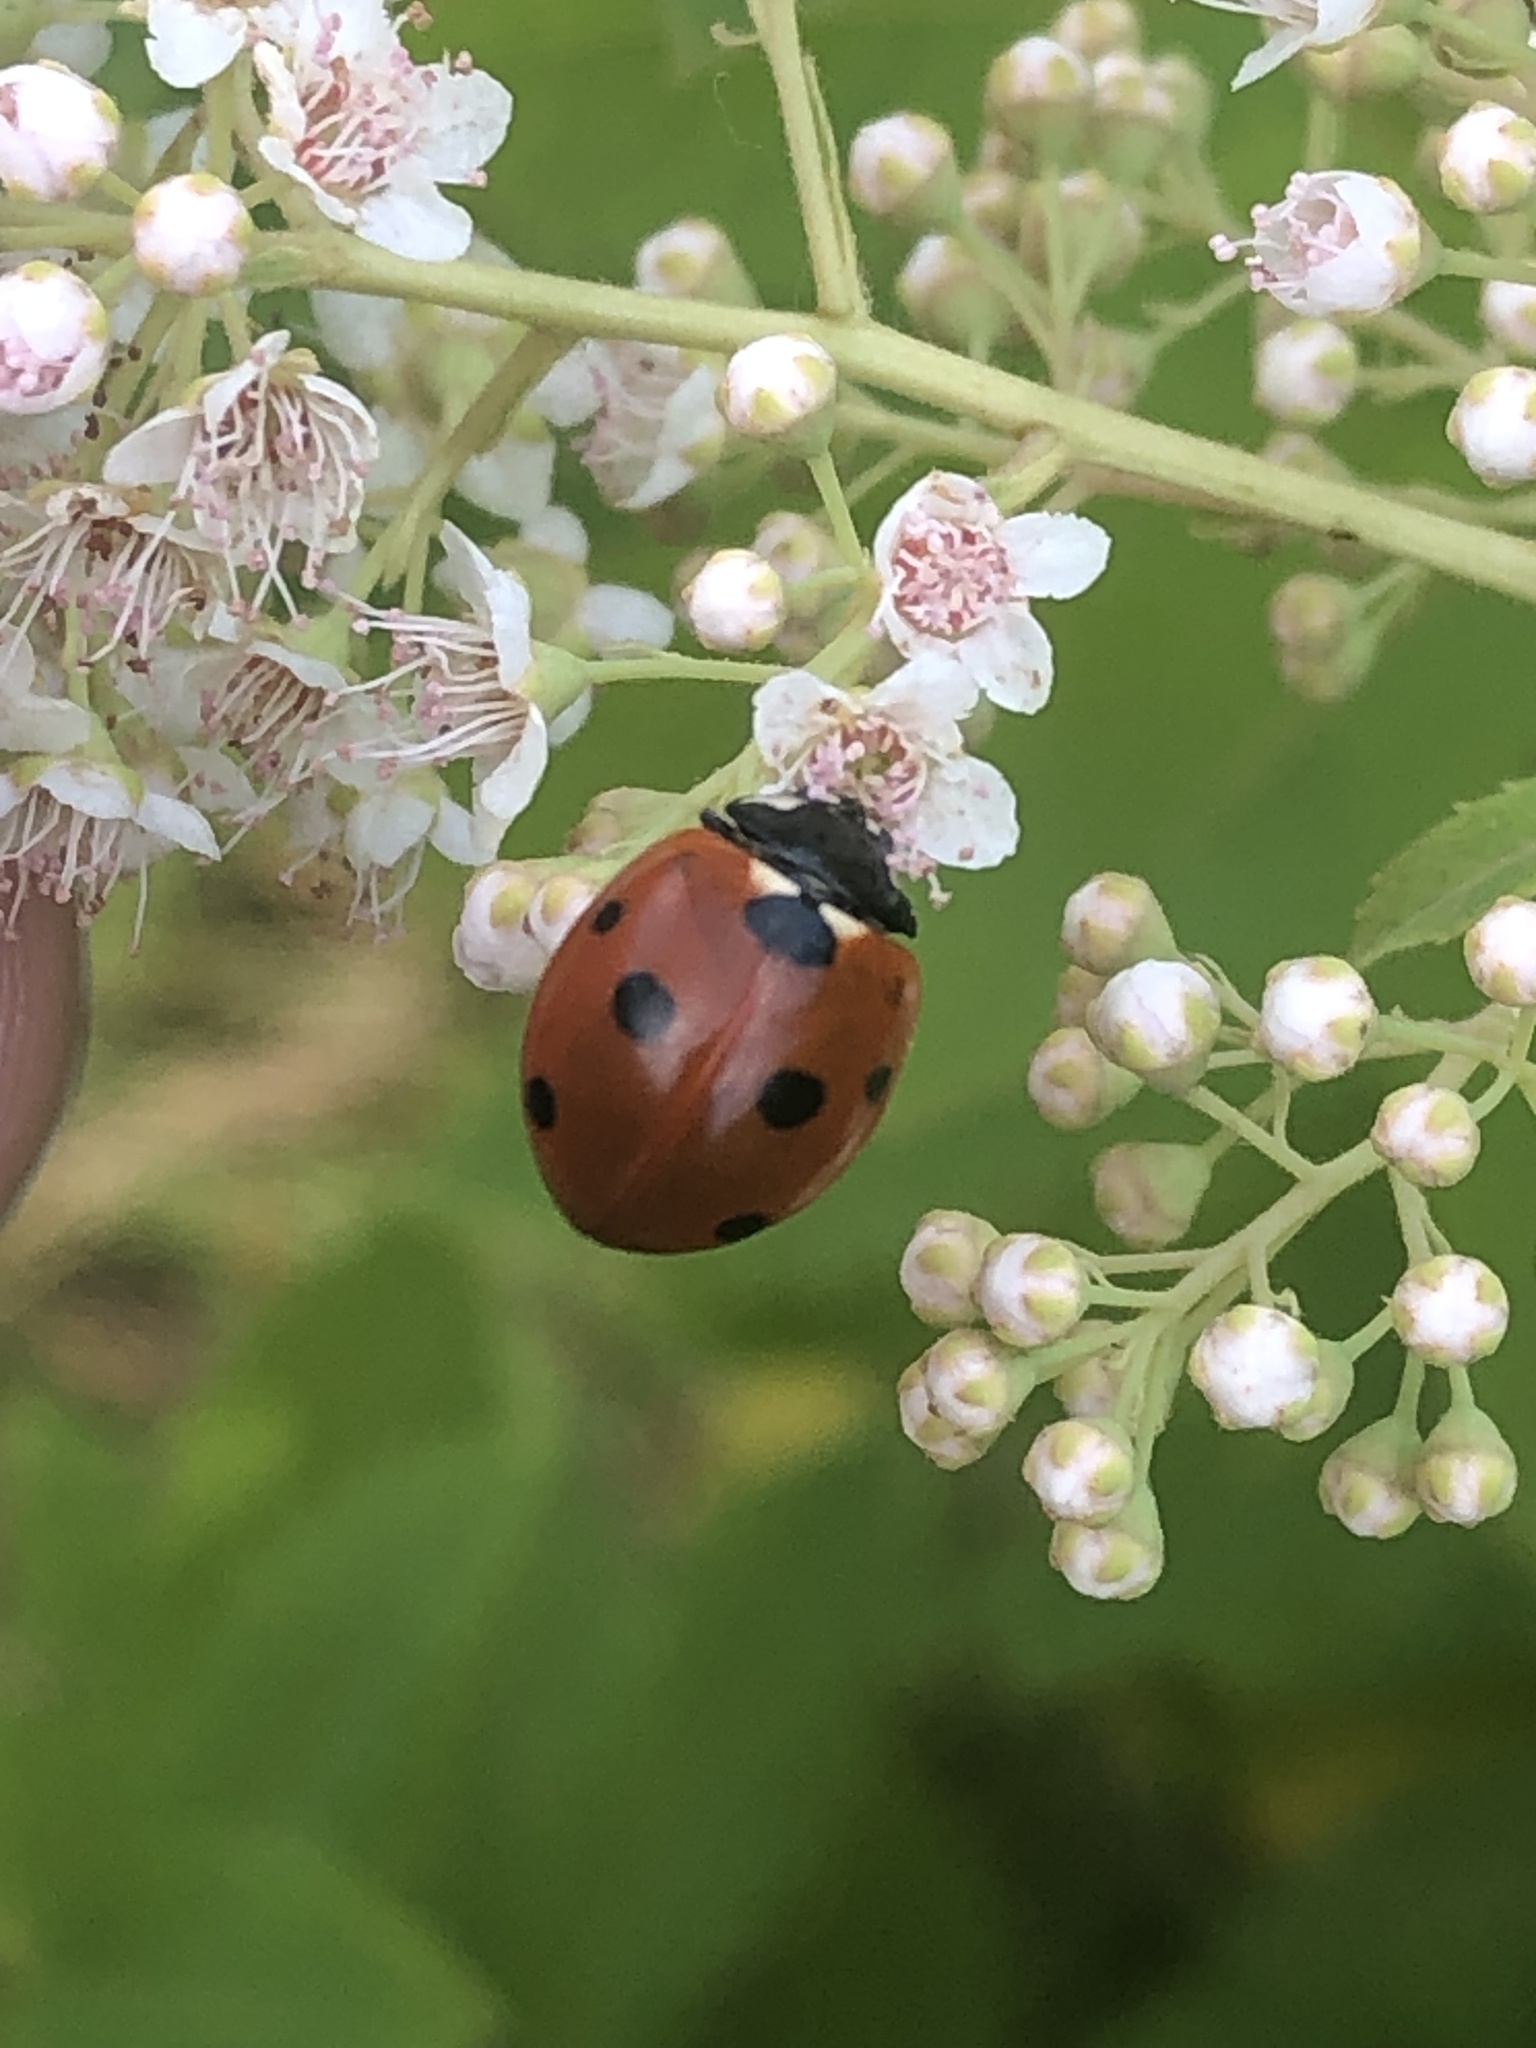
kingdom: Animalia
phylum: Arthropoda
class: Insecta
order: Coleoptera
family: Coccinellidae
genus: Coccinella
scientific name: Coccinella septempunctata
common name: Sevenspotted lady beetle
